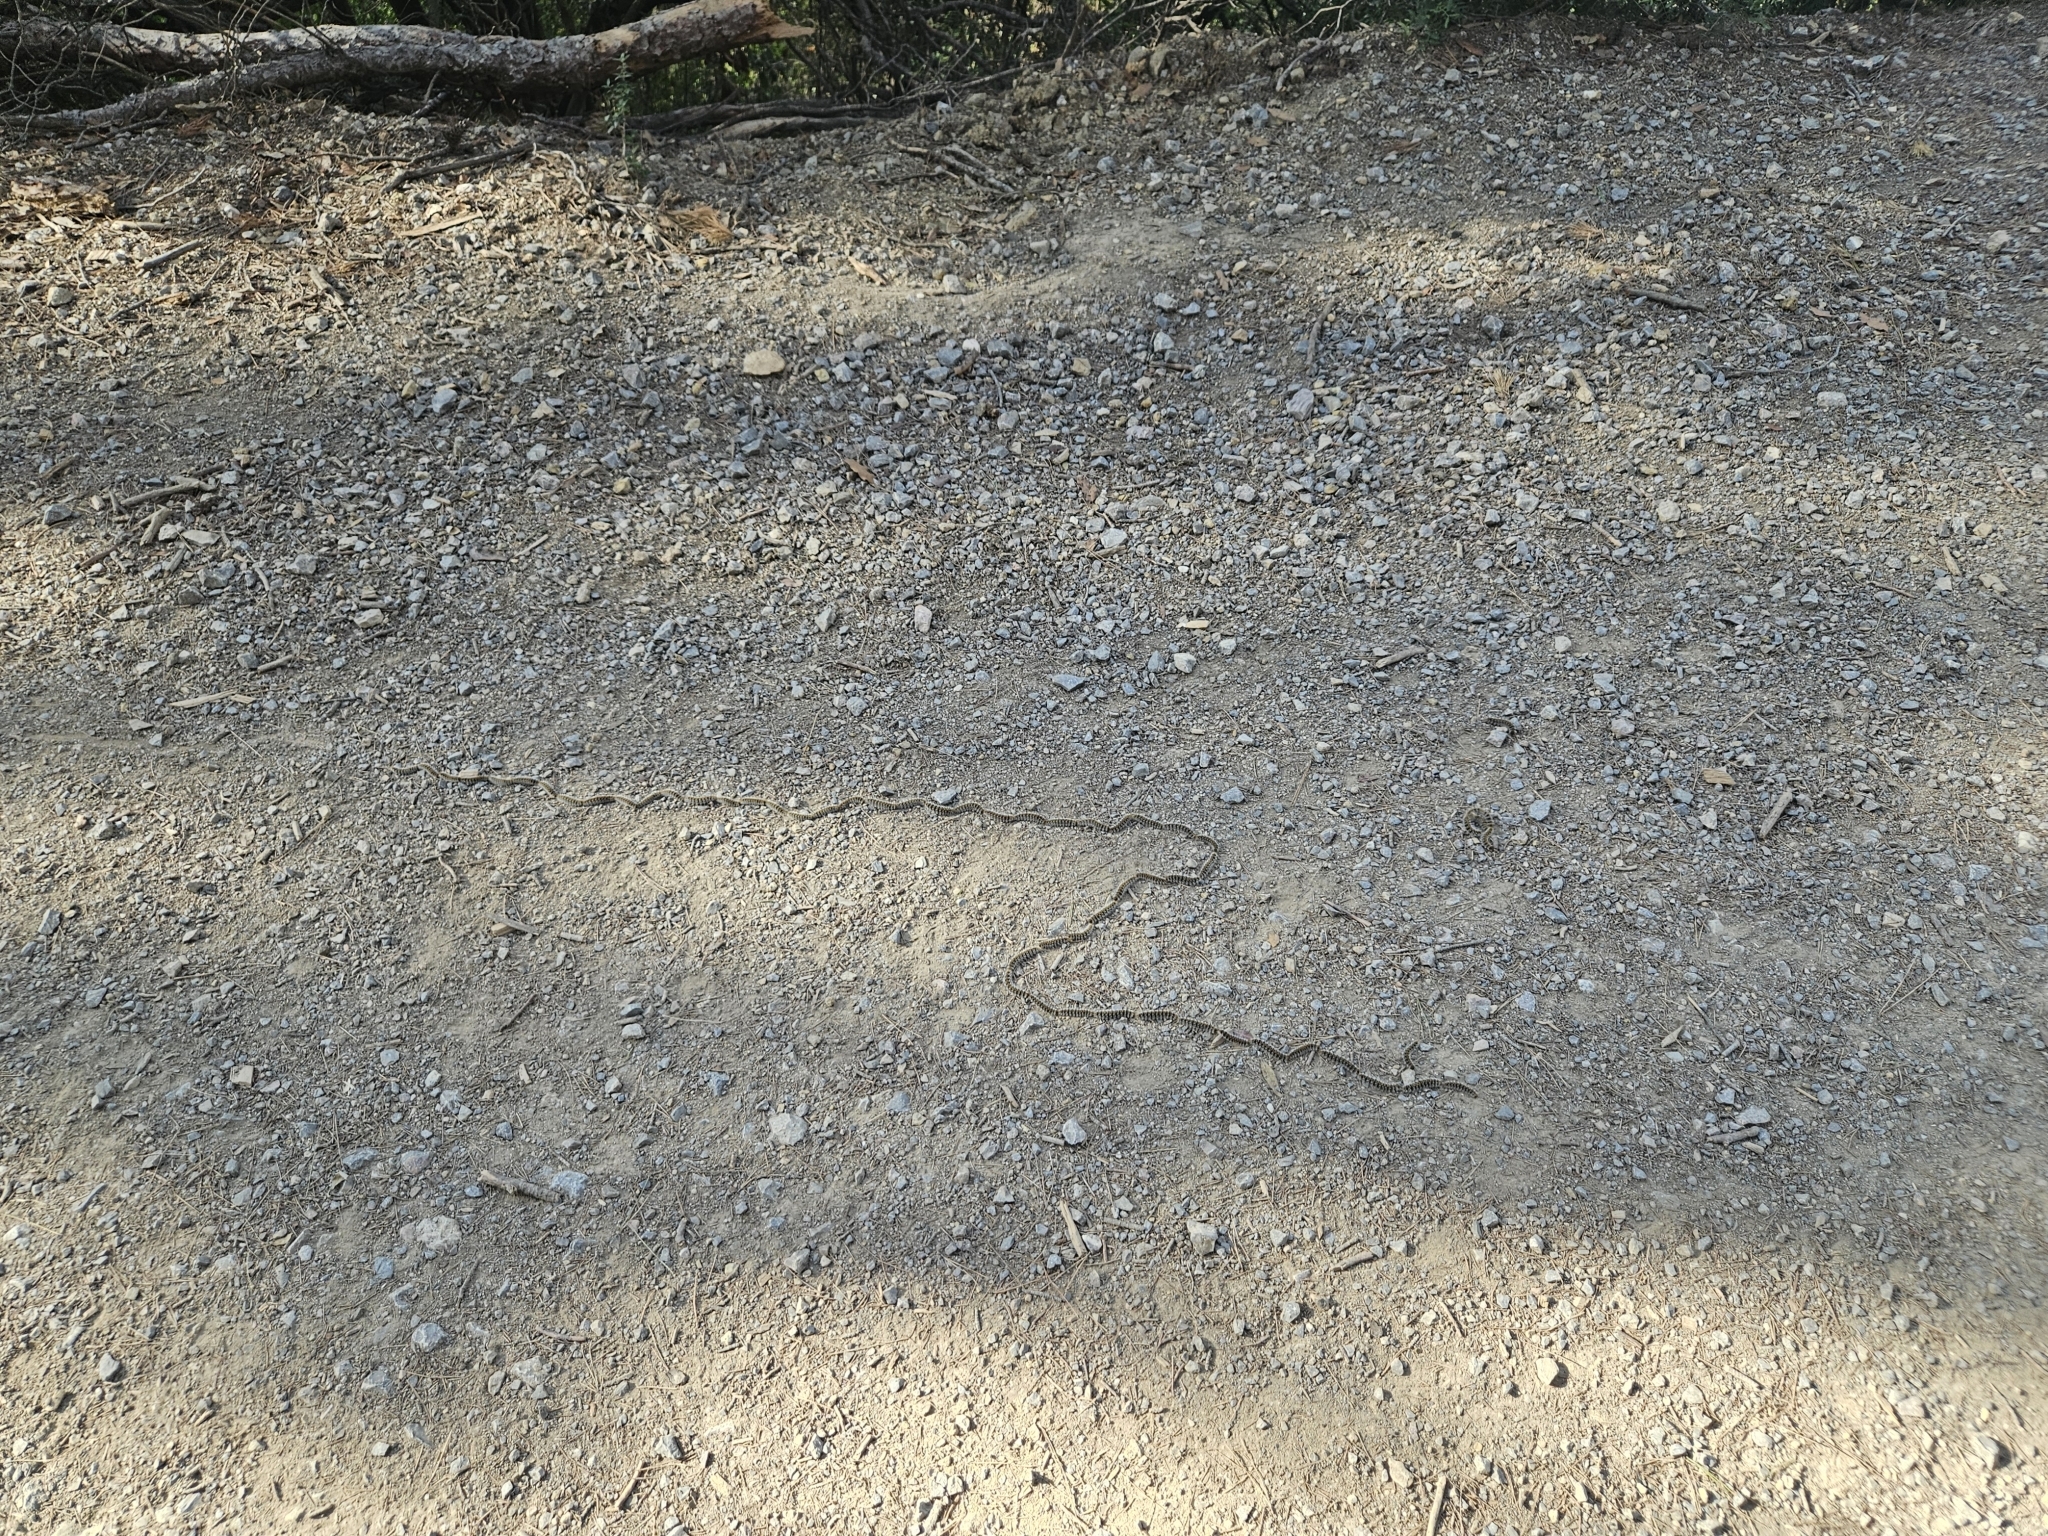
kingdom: Animalia
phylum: Arthropoda
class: Insecta
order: Lepidoptera
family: Notodontidae
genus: Thaumetopoea
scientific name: Thaumetopoea pityocampa
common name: Pine processionary
